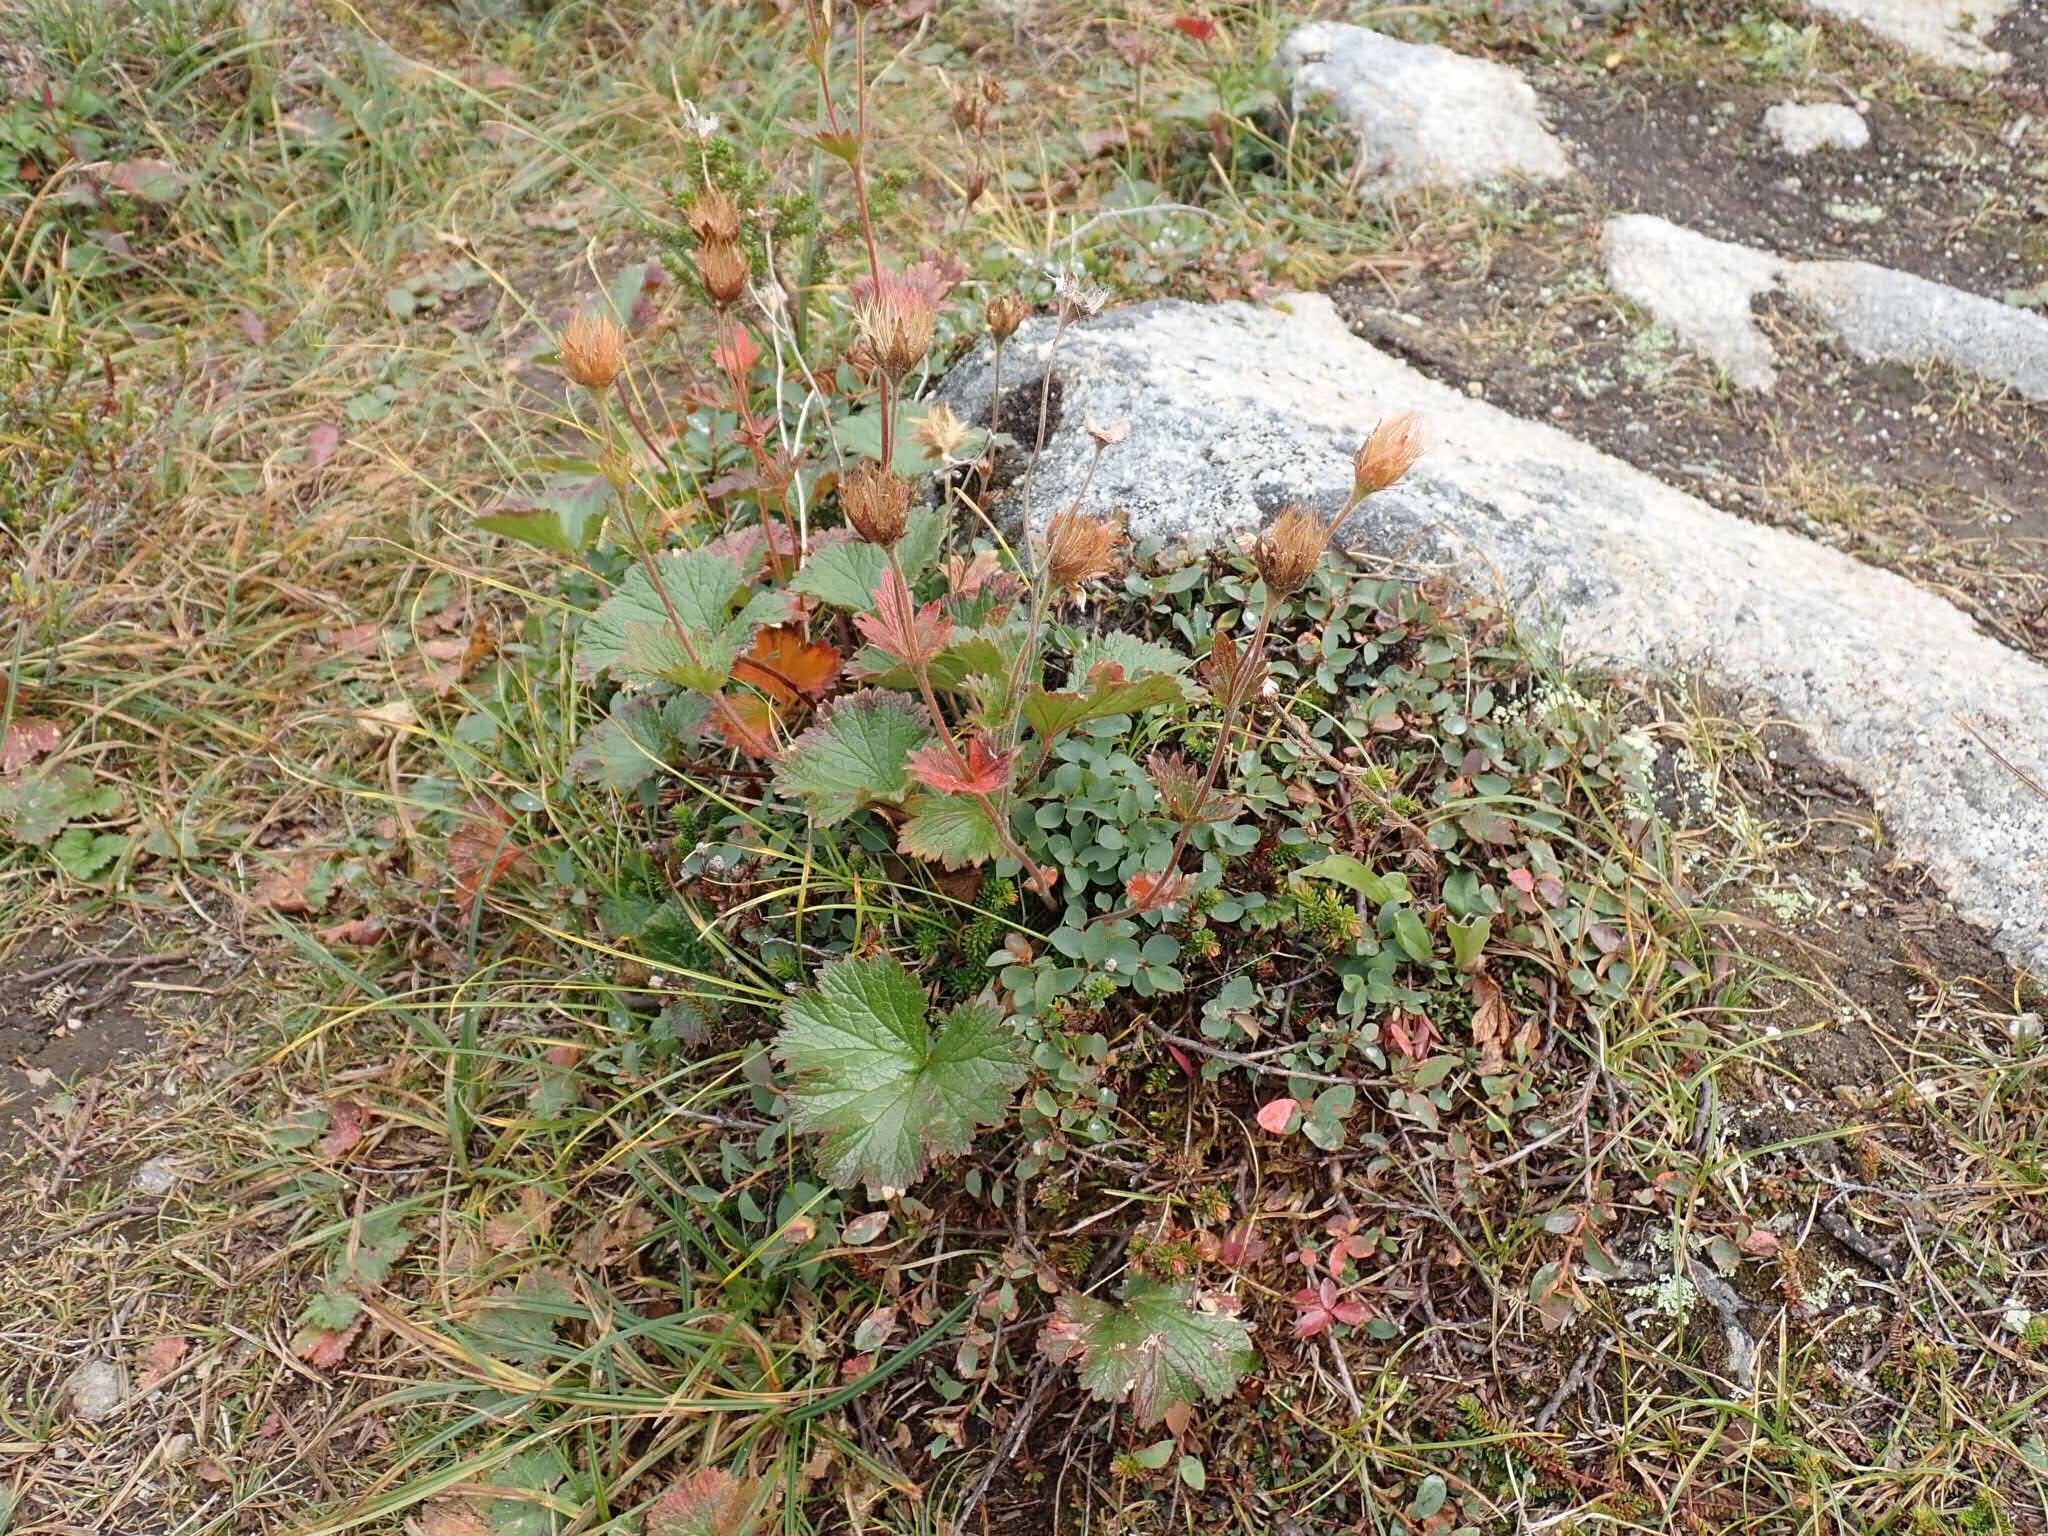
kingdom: Plantae
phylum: Tracheophyta
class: Magnoliopsida
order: Rosales
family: Rosaceae
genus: Geum
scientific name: Geum calthifolium
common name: Caltha-leaved avens
